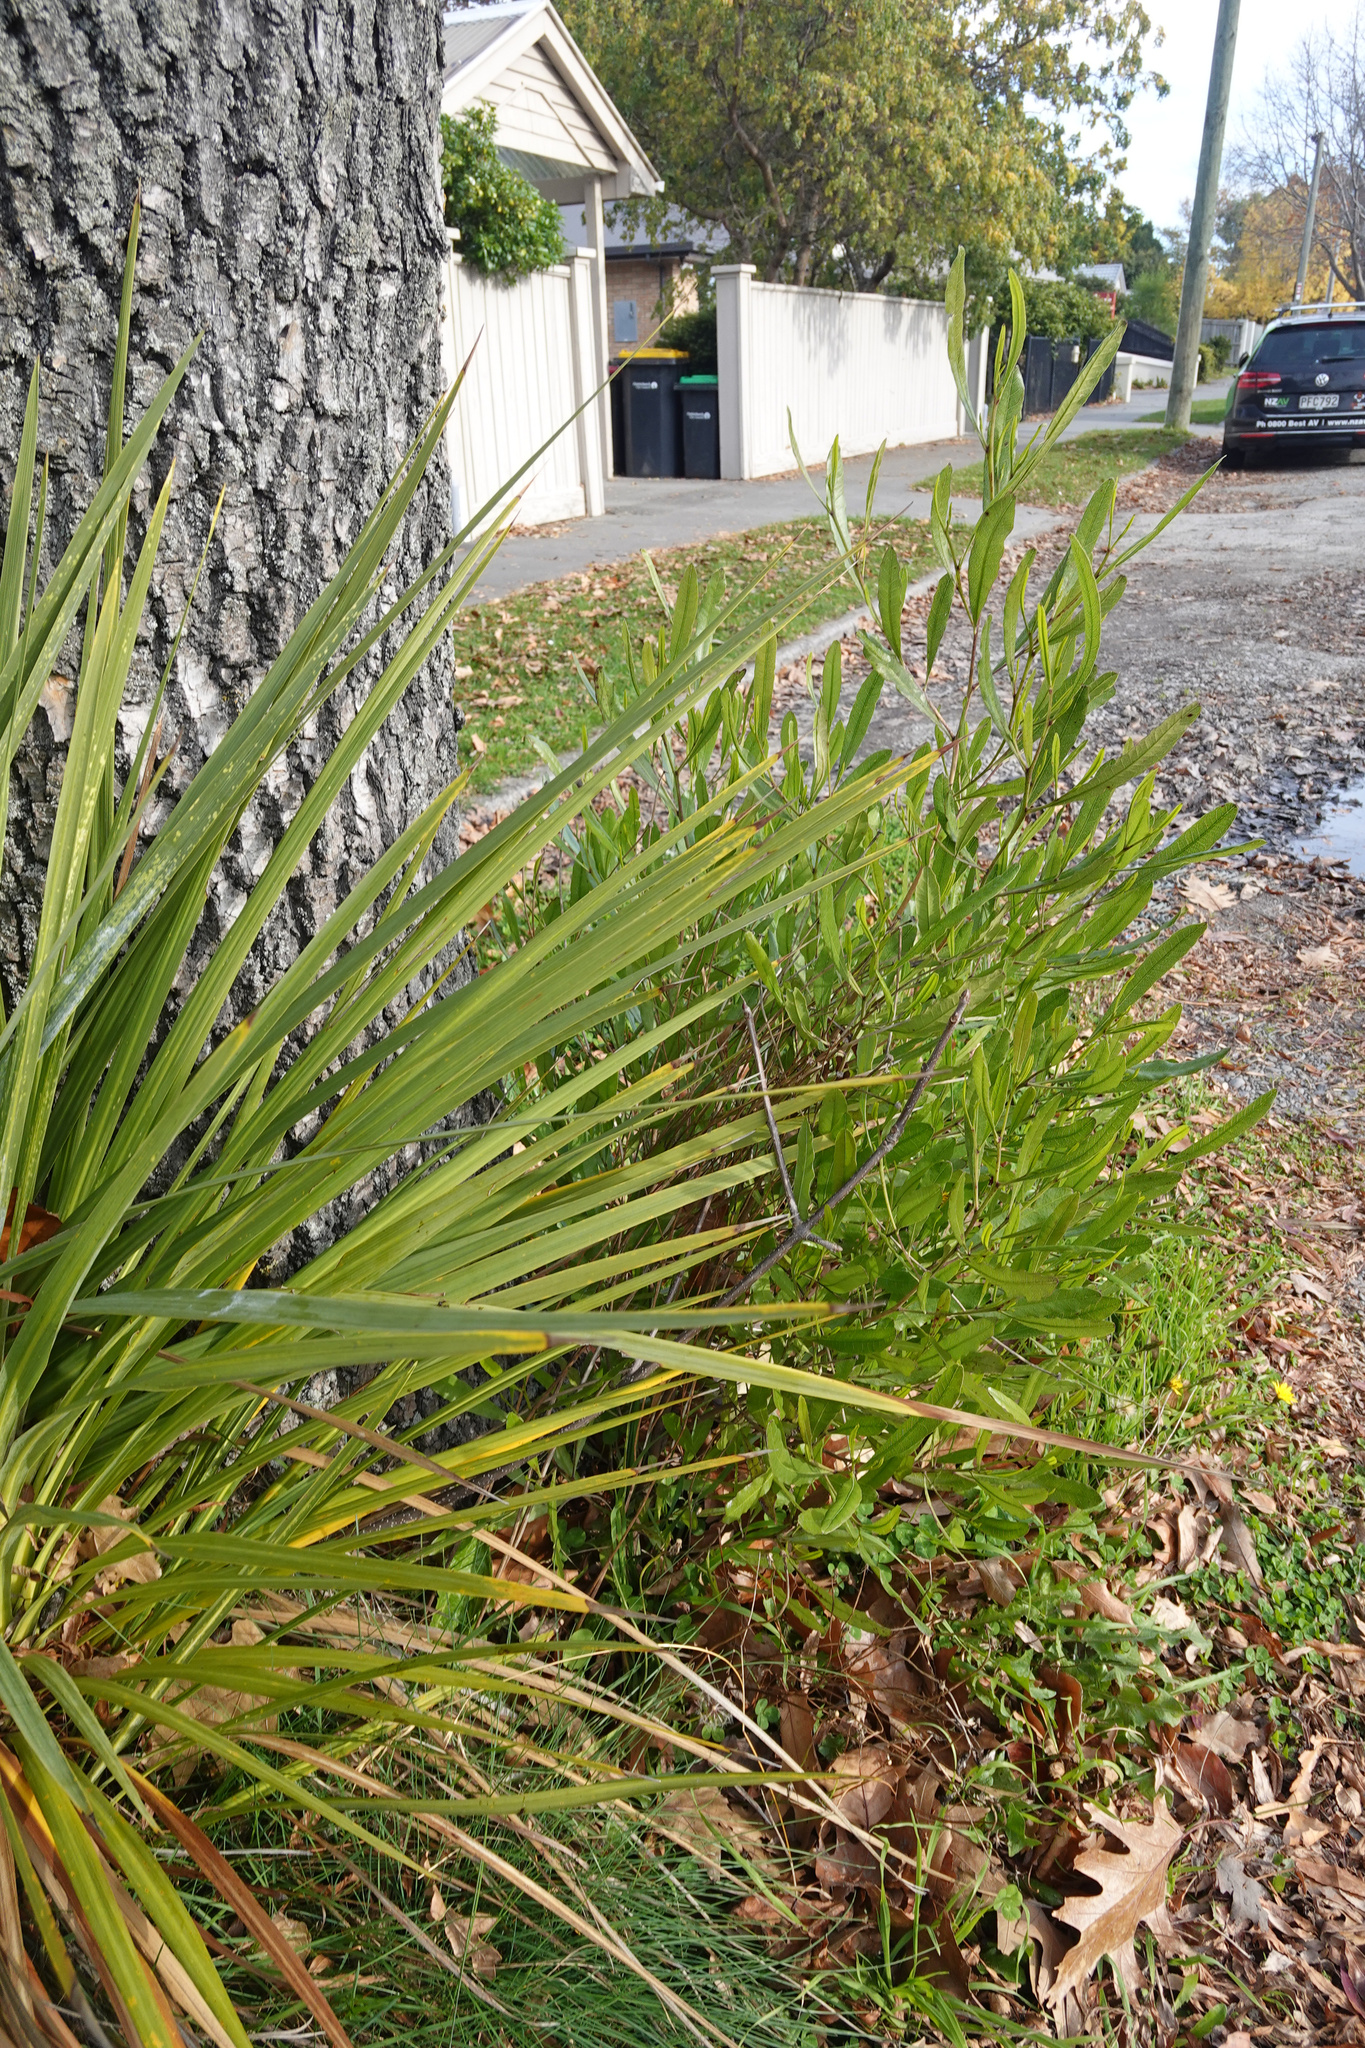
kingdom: Plantae
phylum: Tracheophyta
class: Magnoliopsida
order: Sapindales
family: Sapindaceae
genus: Dodonaea
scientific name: Dodonaea viscosa
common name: Hopbush
